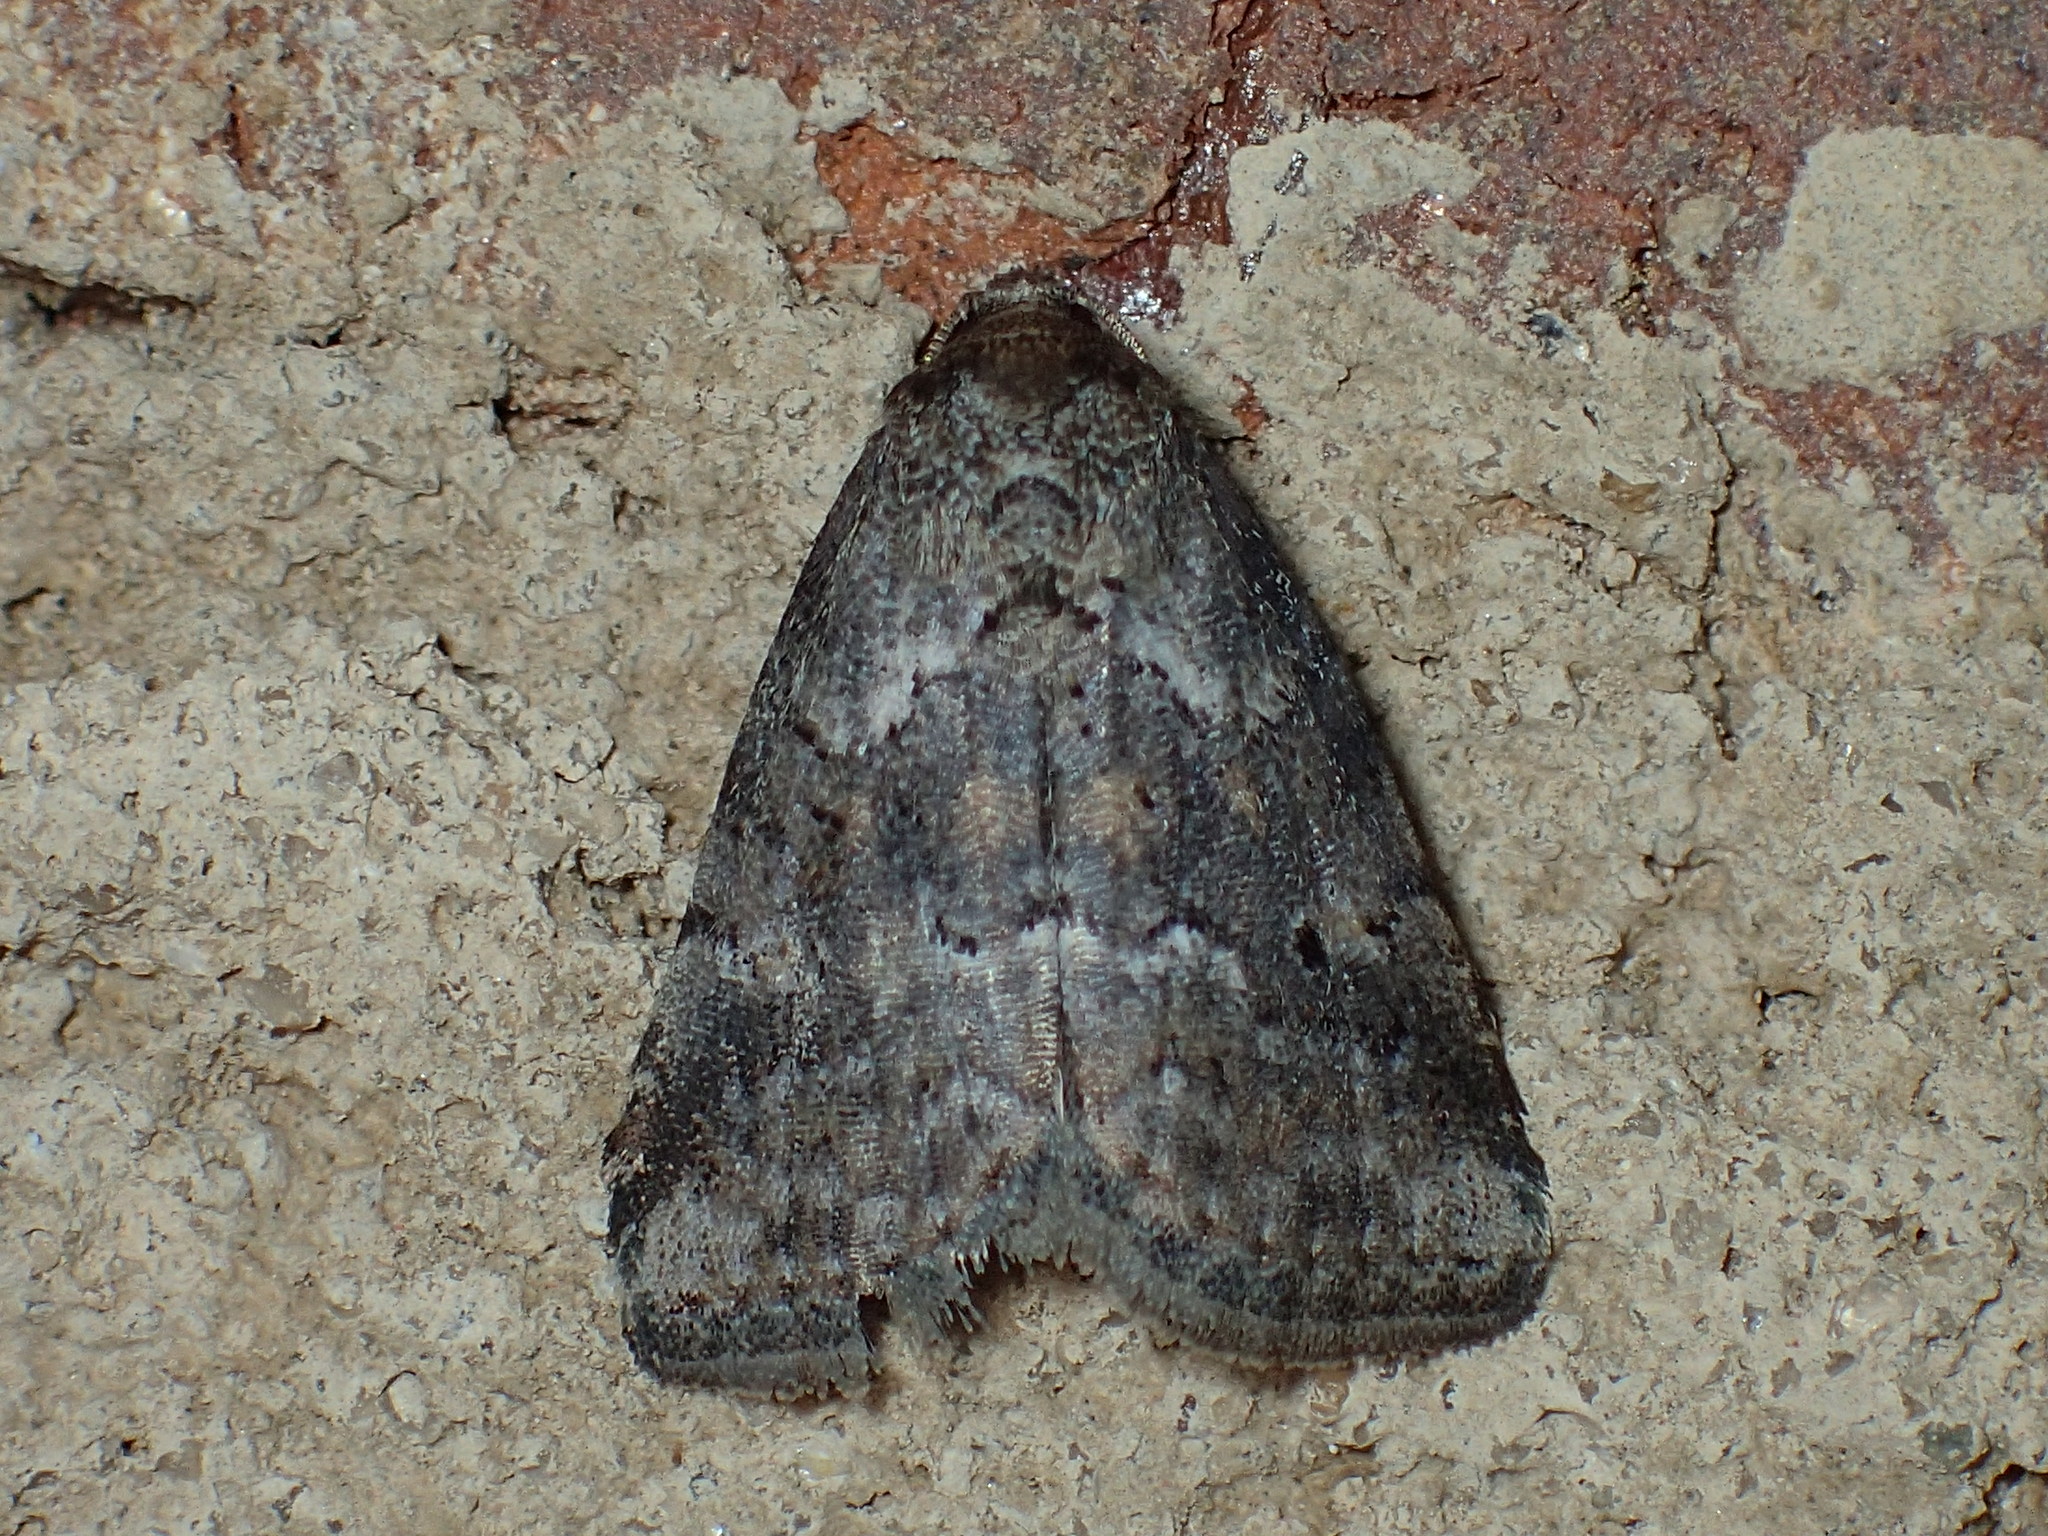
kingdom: Animalia
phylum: Arthropoda
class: Insecta
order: Lepidoptera
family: Erebidae
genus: Hyperstrotia
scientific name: Hyperstrotia nana
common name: White-lined graylet
